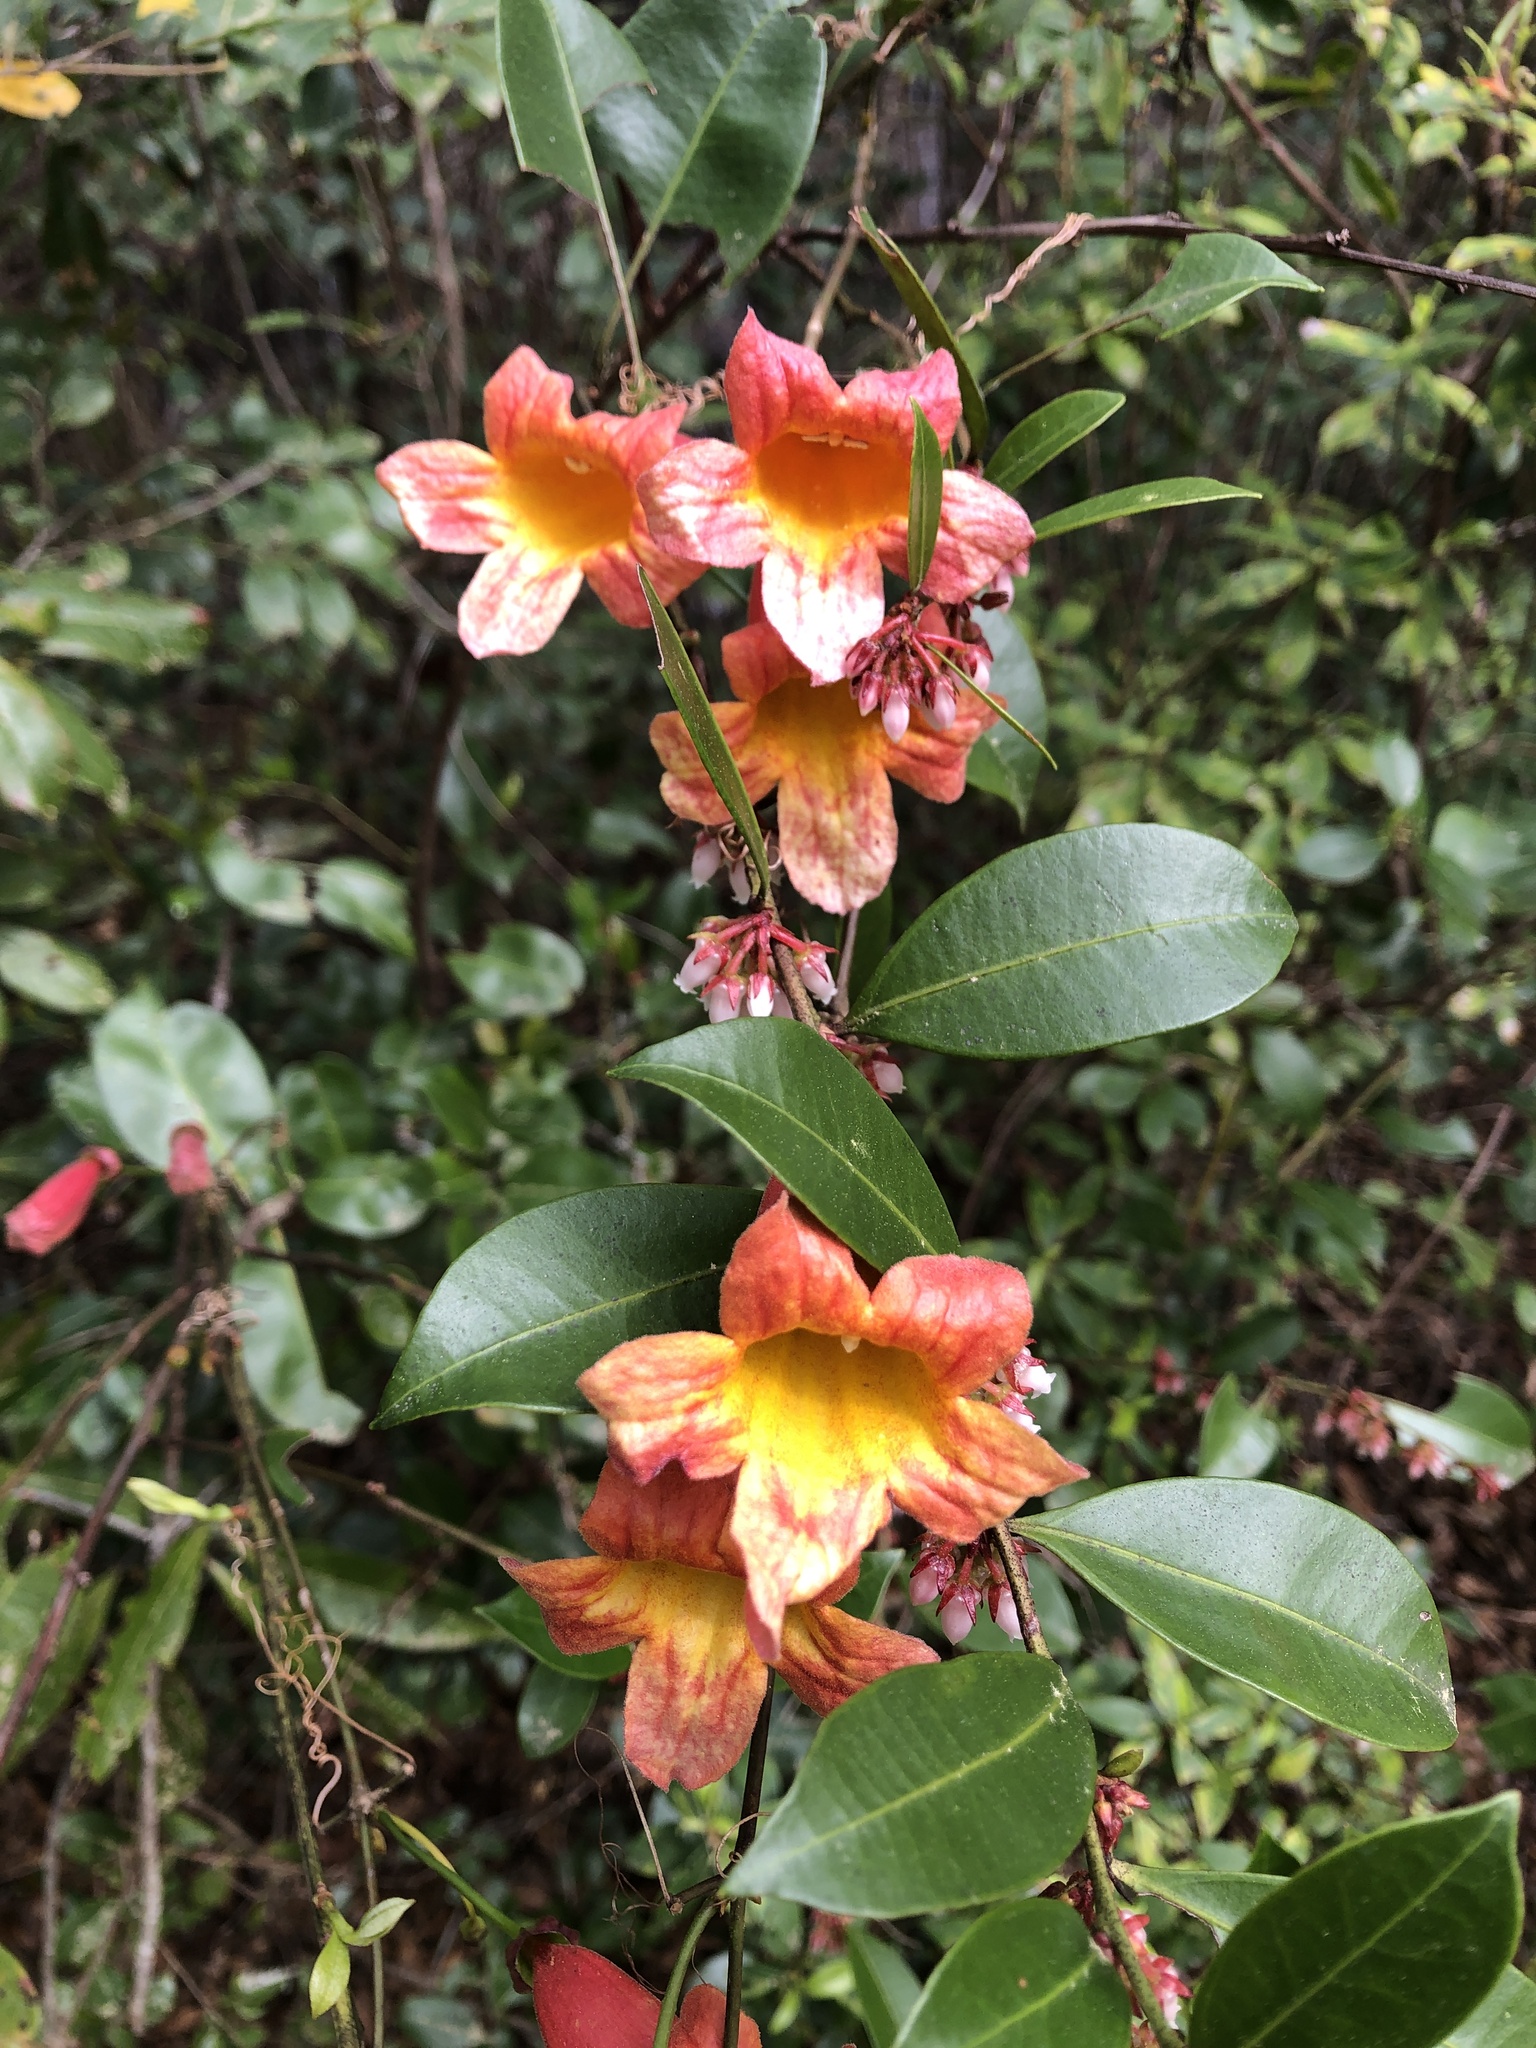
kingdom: Plantae
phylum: Tracheophyta
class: Magnoliopsida
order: Lamiales
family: Bignoniaceae
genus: Bignonia
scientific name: Bignonia capreolata
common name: Crossvine
